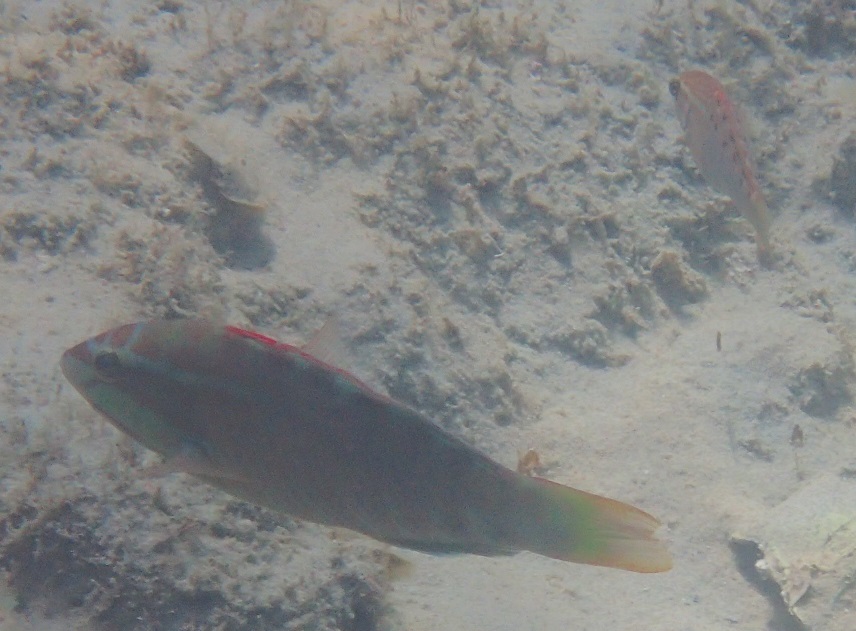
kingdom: Animalia
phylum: Chordata
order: Perciformes
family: Labridae
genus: Pseudolabrus
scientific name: Pseudolabrus guentheri
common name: Günther's wrasse
